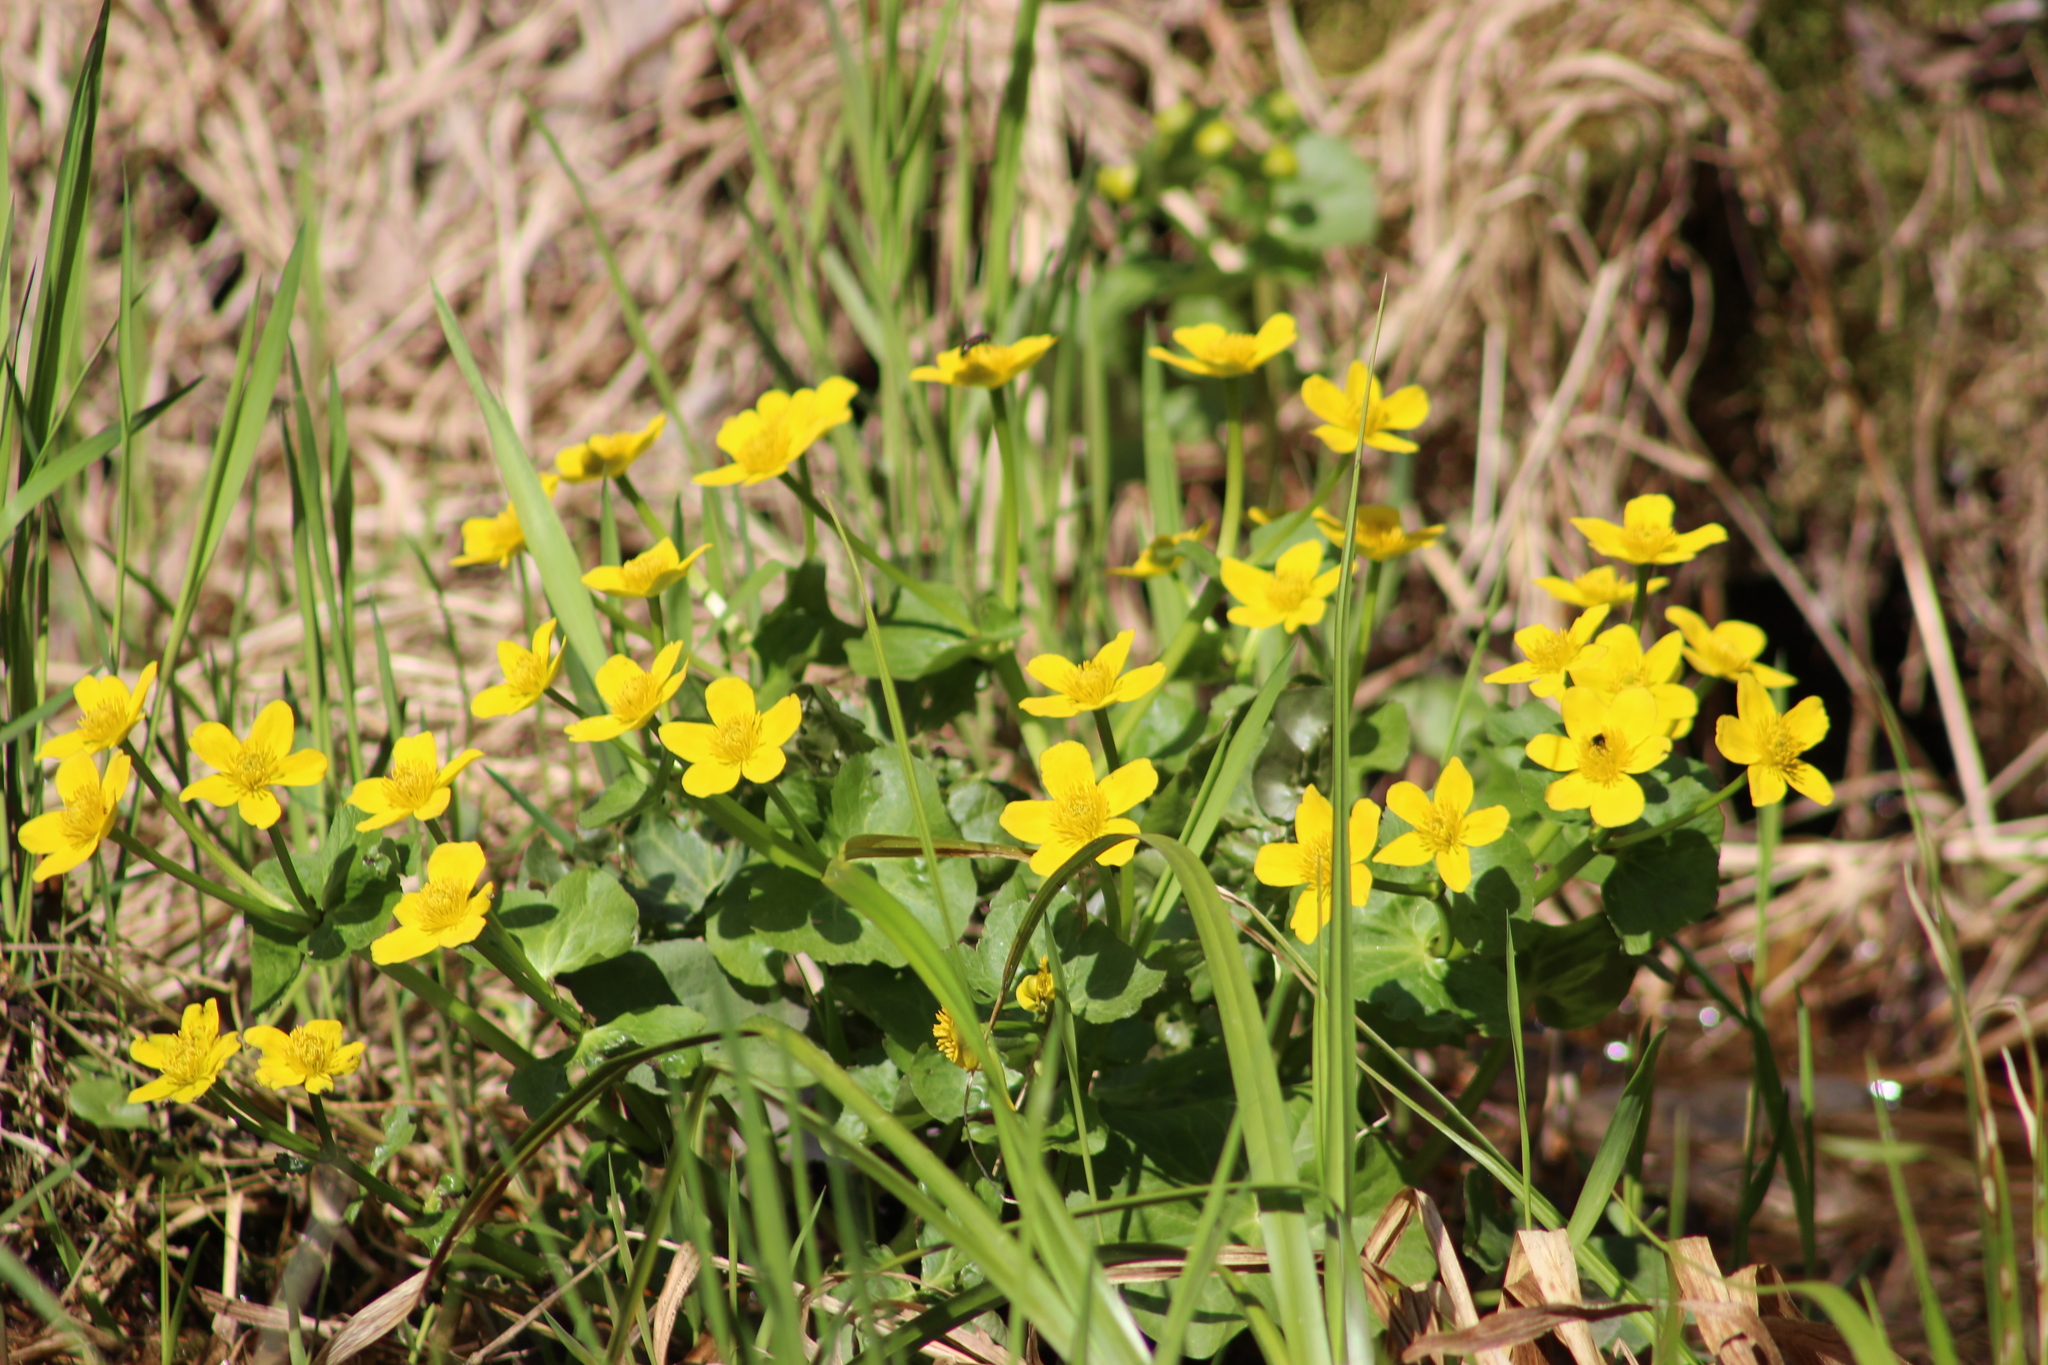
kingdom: Plantae
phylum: Tracheophyta
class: Magnoliopsida
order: Ranunculales
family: Ranunculaceae
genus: Caltha
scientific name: Caltha palustris
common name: Marsh marigold
